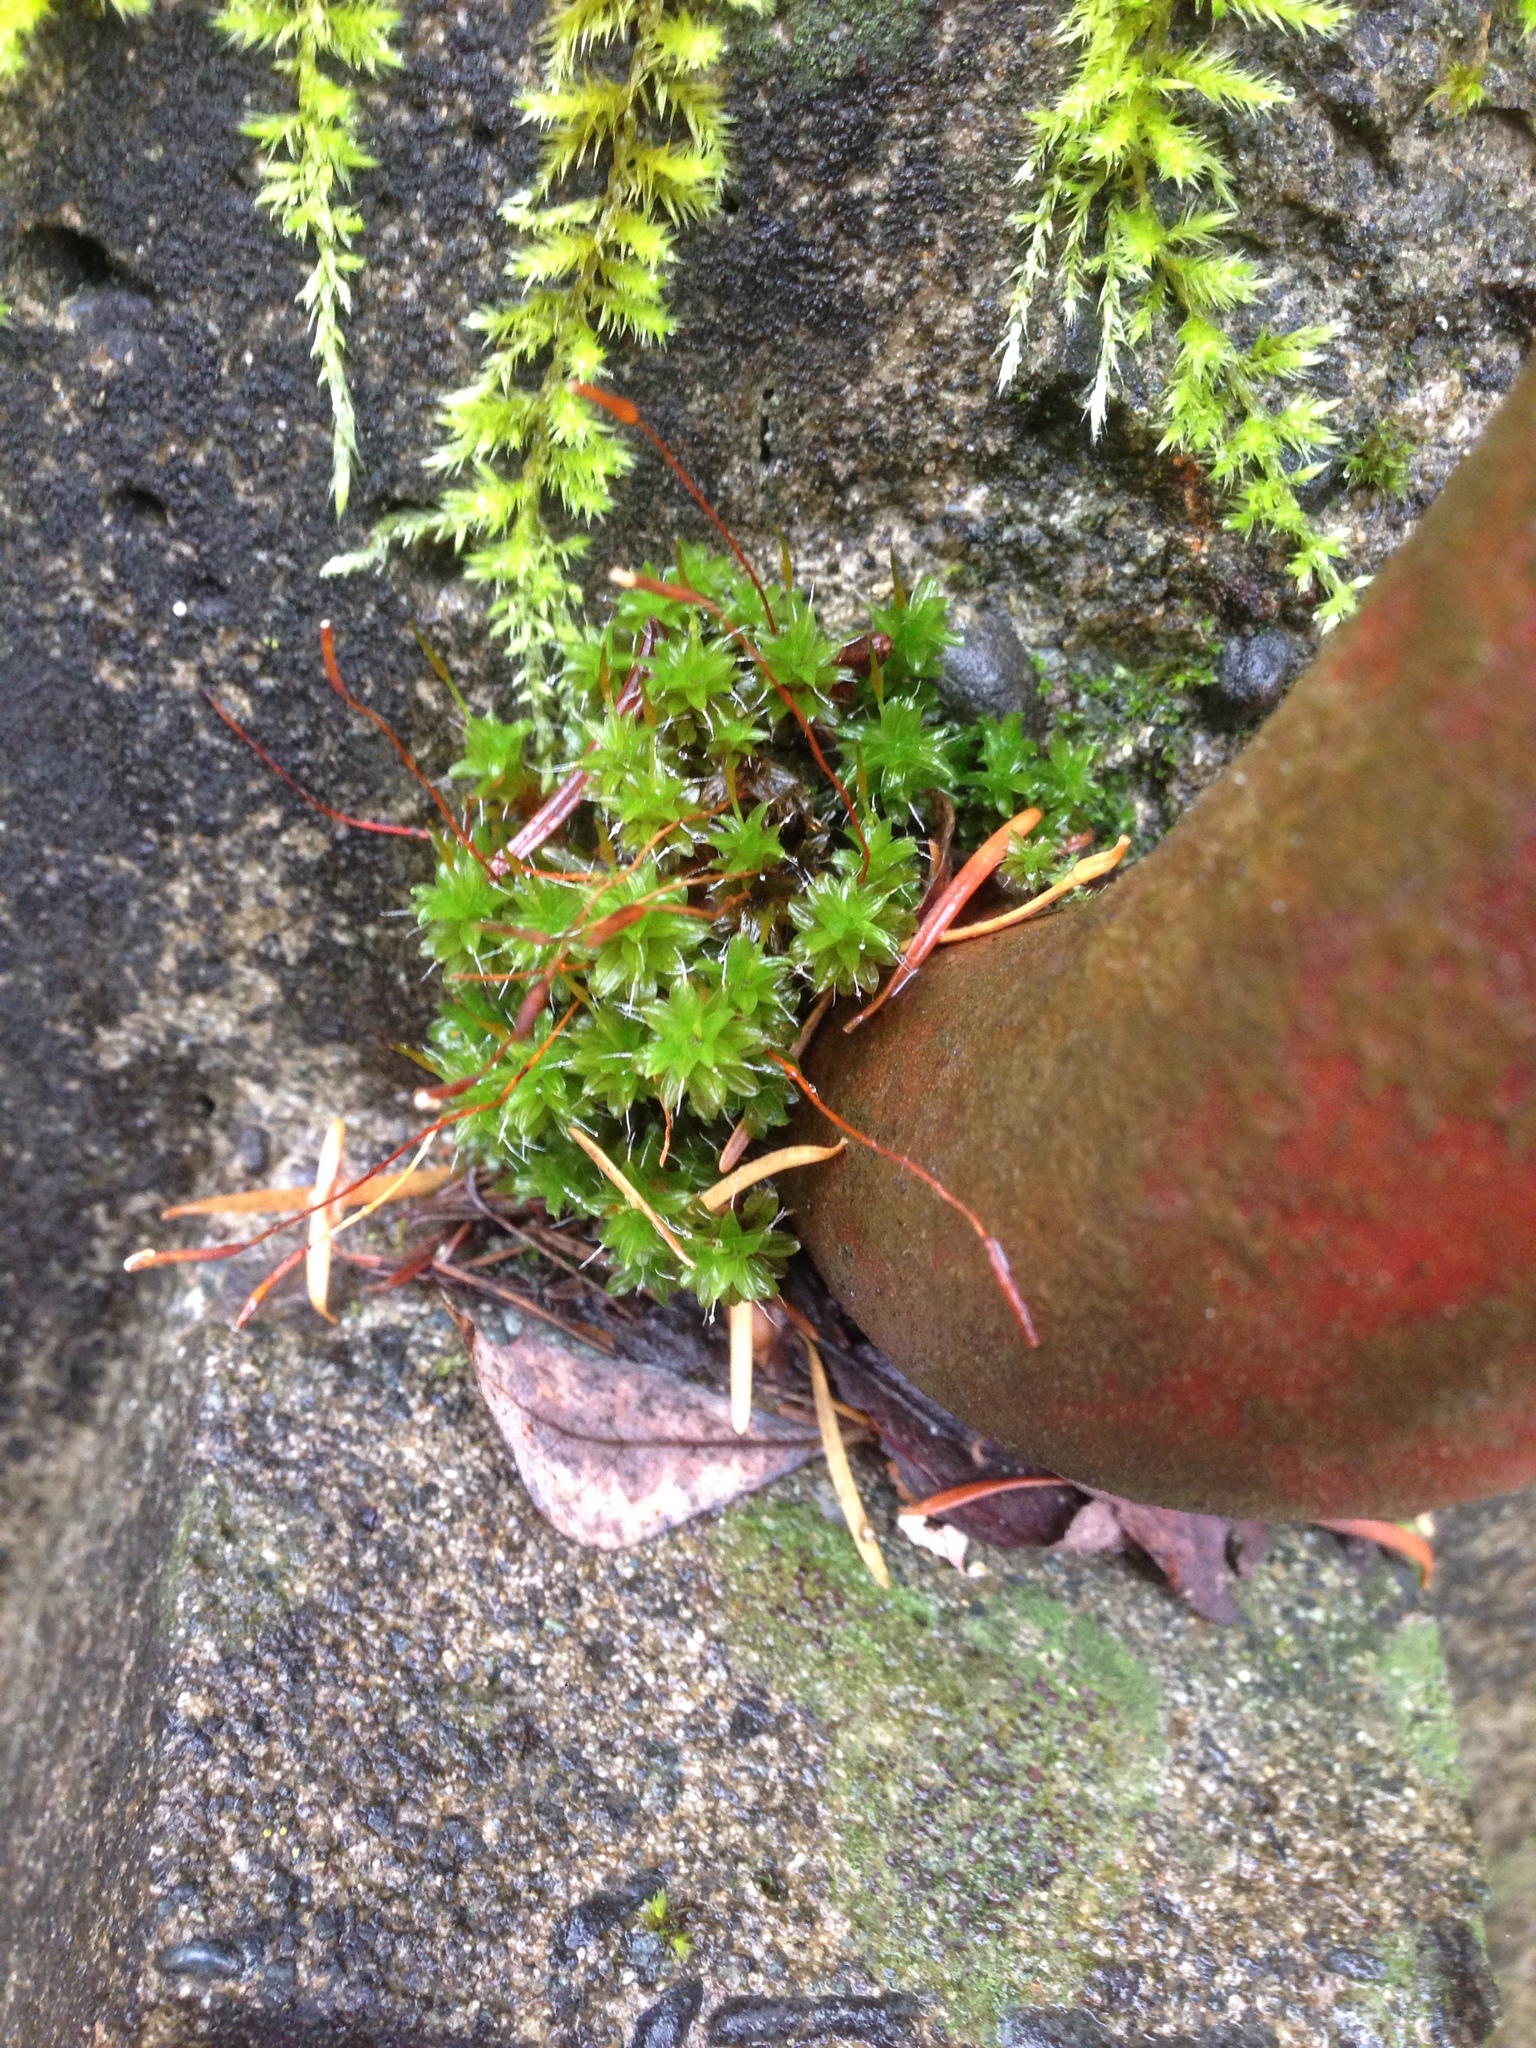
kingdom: Plantae
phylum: Bryophyta
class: Bryopsida
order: Pottiales
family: Pottiaceae
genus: Syntrichia
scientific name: Syntrichia ruralis
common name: Sidewalk screw moss
